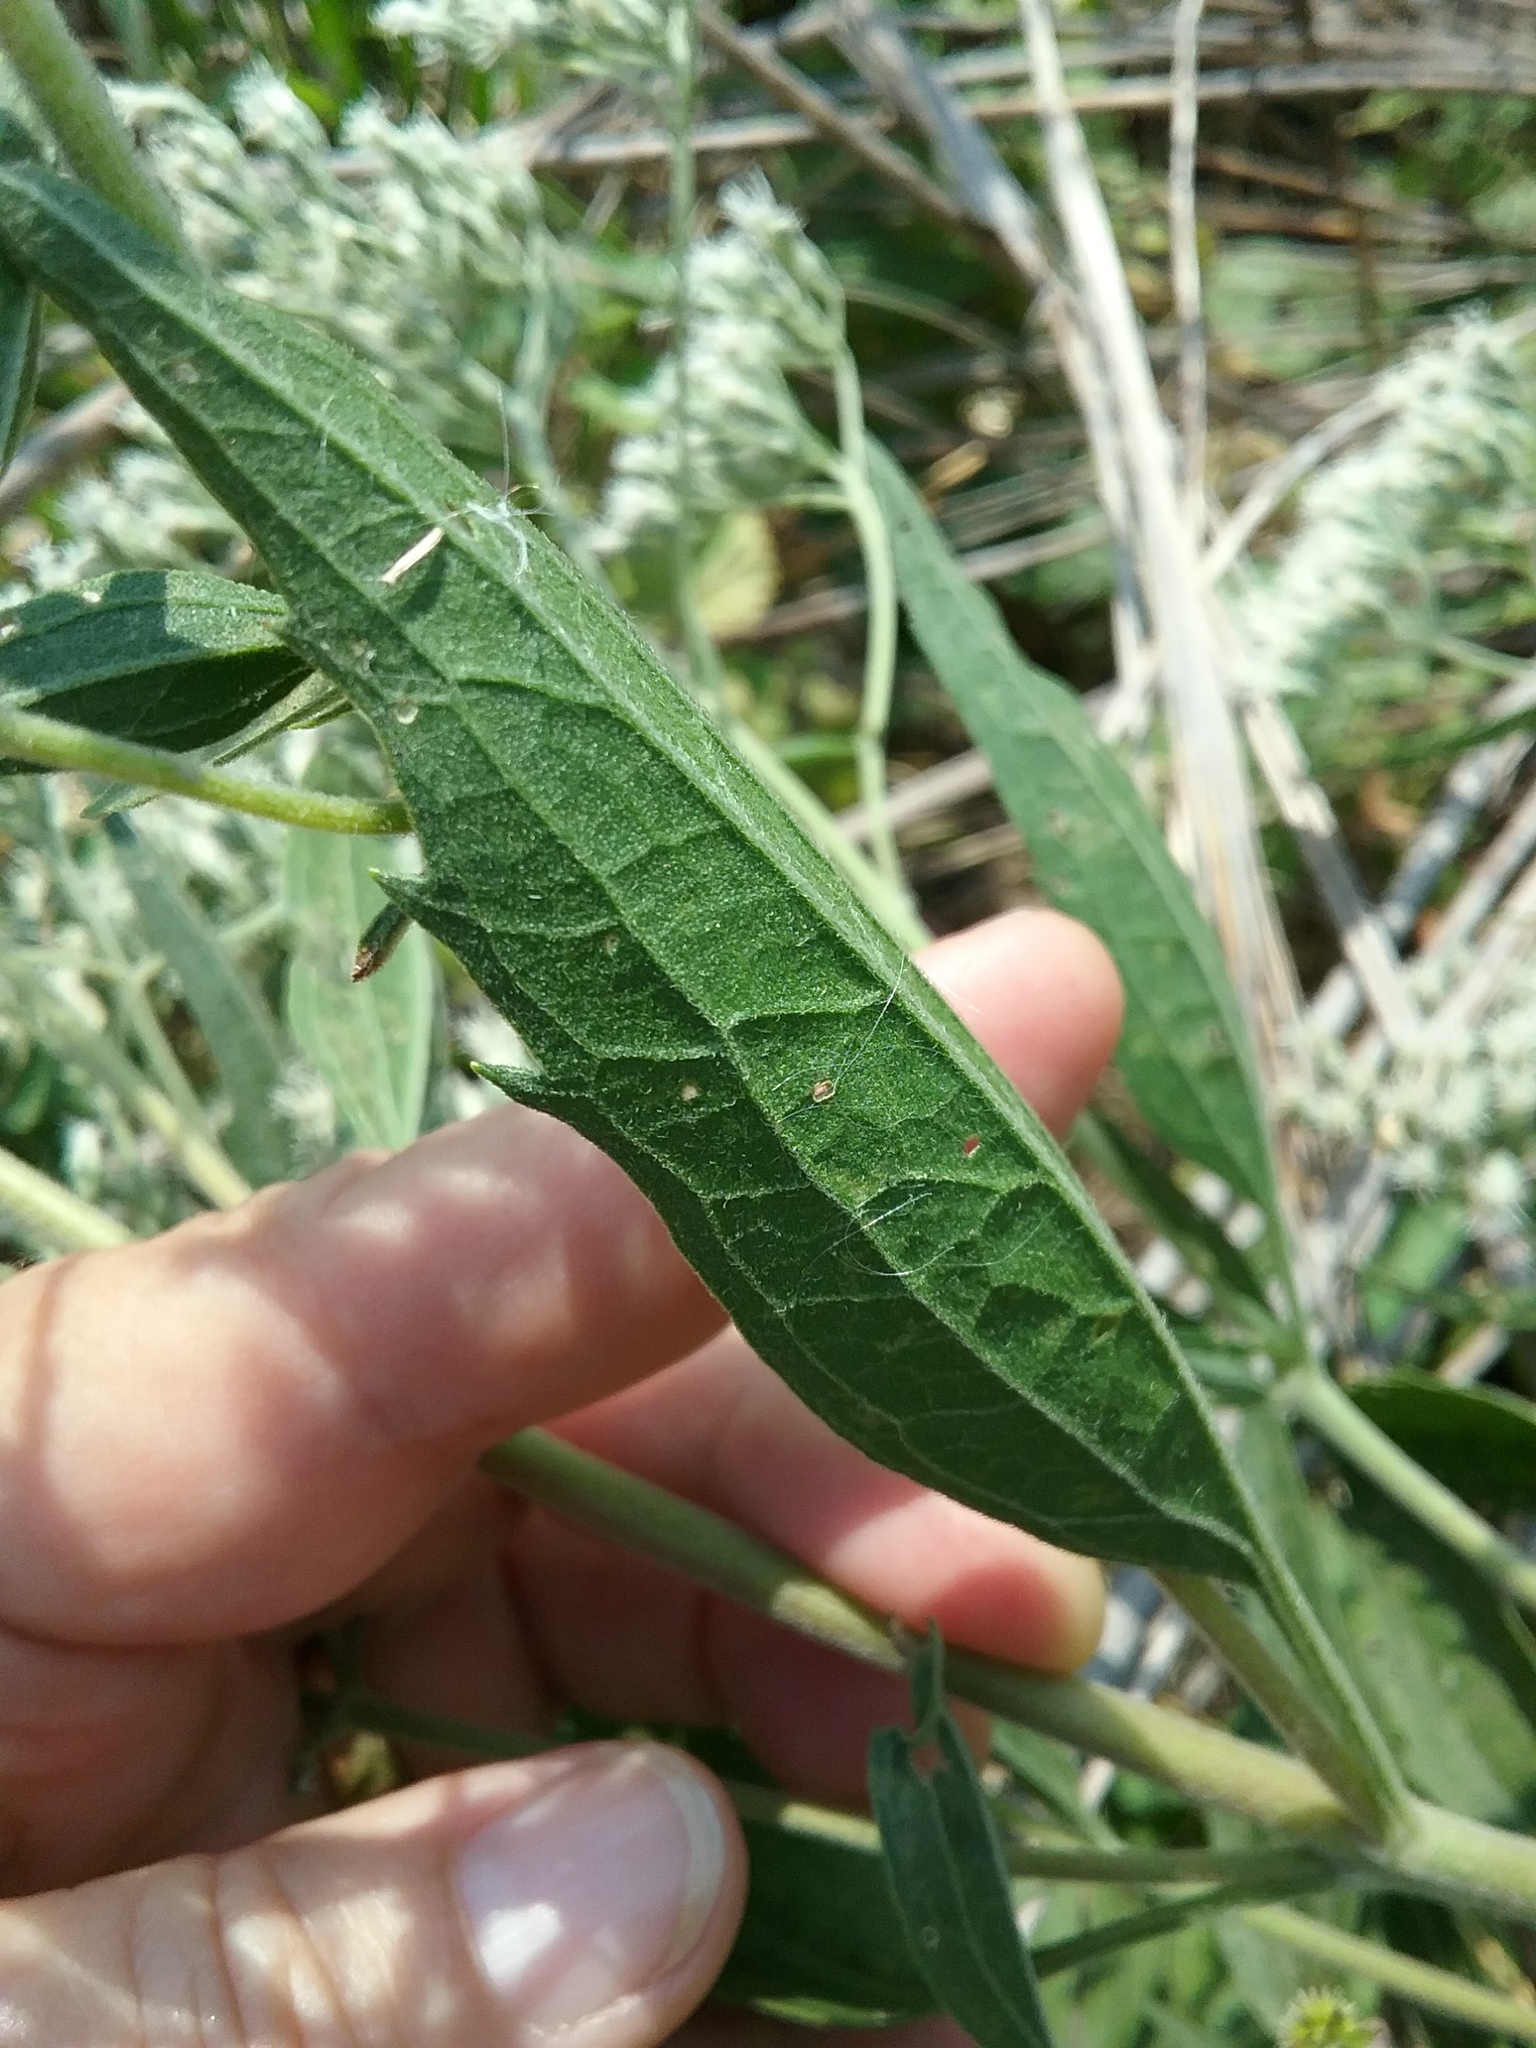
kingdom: Plantae
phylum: Tracheophyta
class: Magnoliopsida
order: Asterales
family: Asteraceae
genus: Eupatorium
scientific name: Eupatorium serotinum
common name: Late boneset
